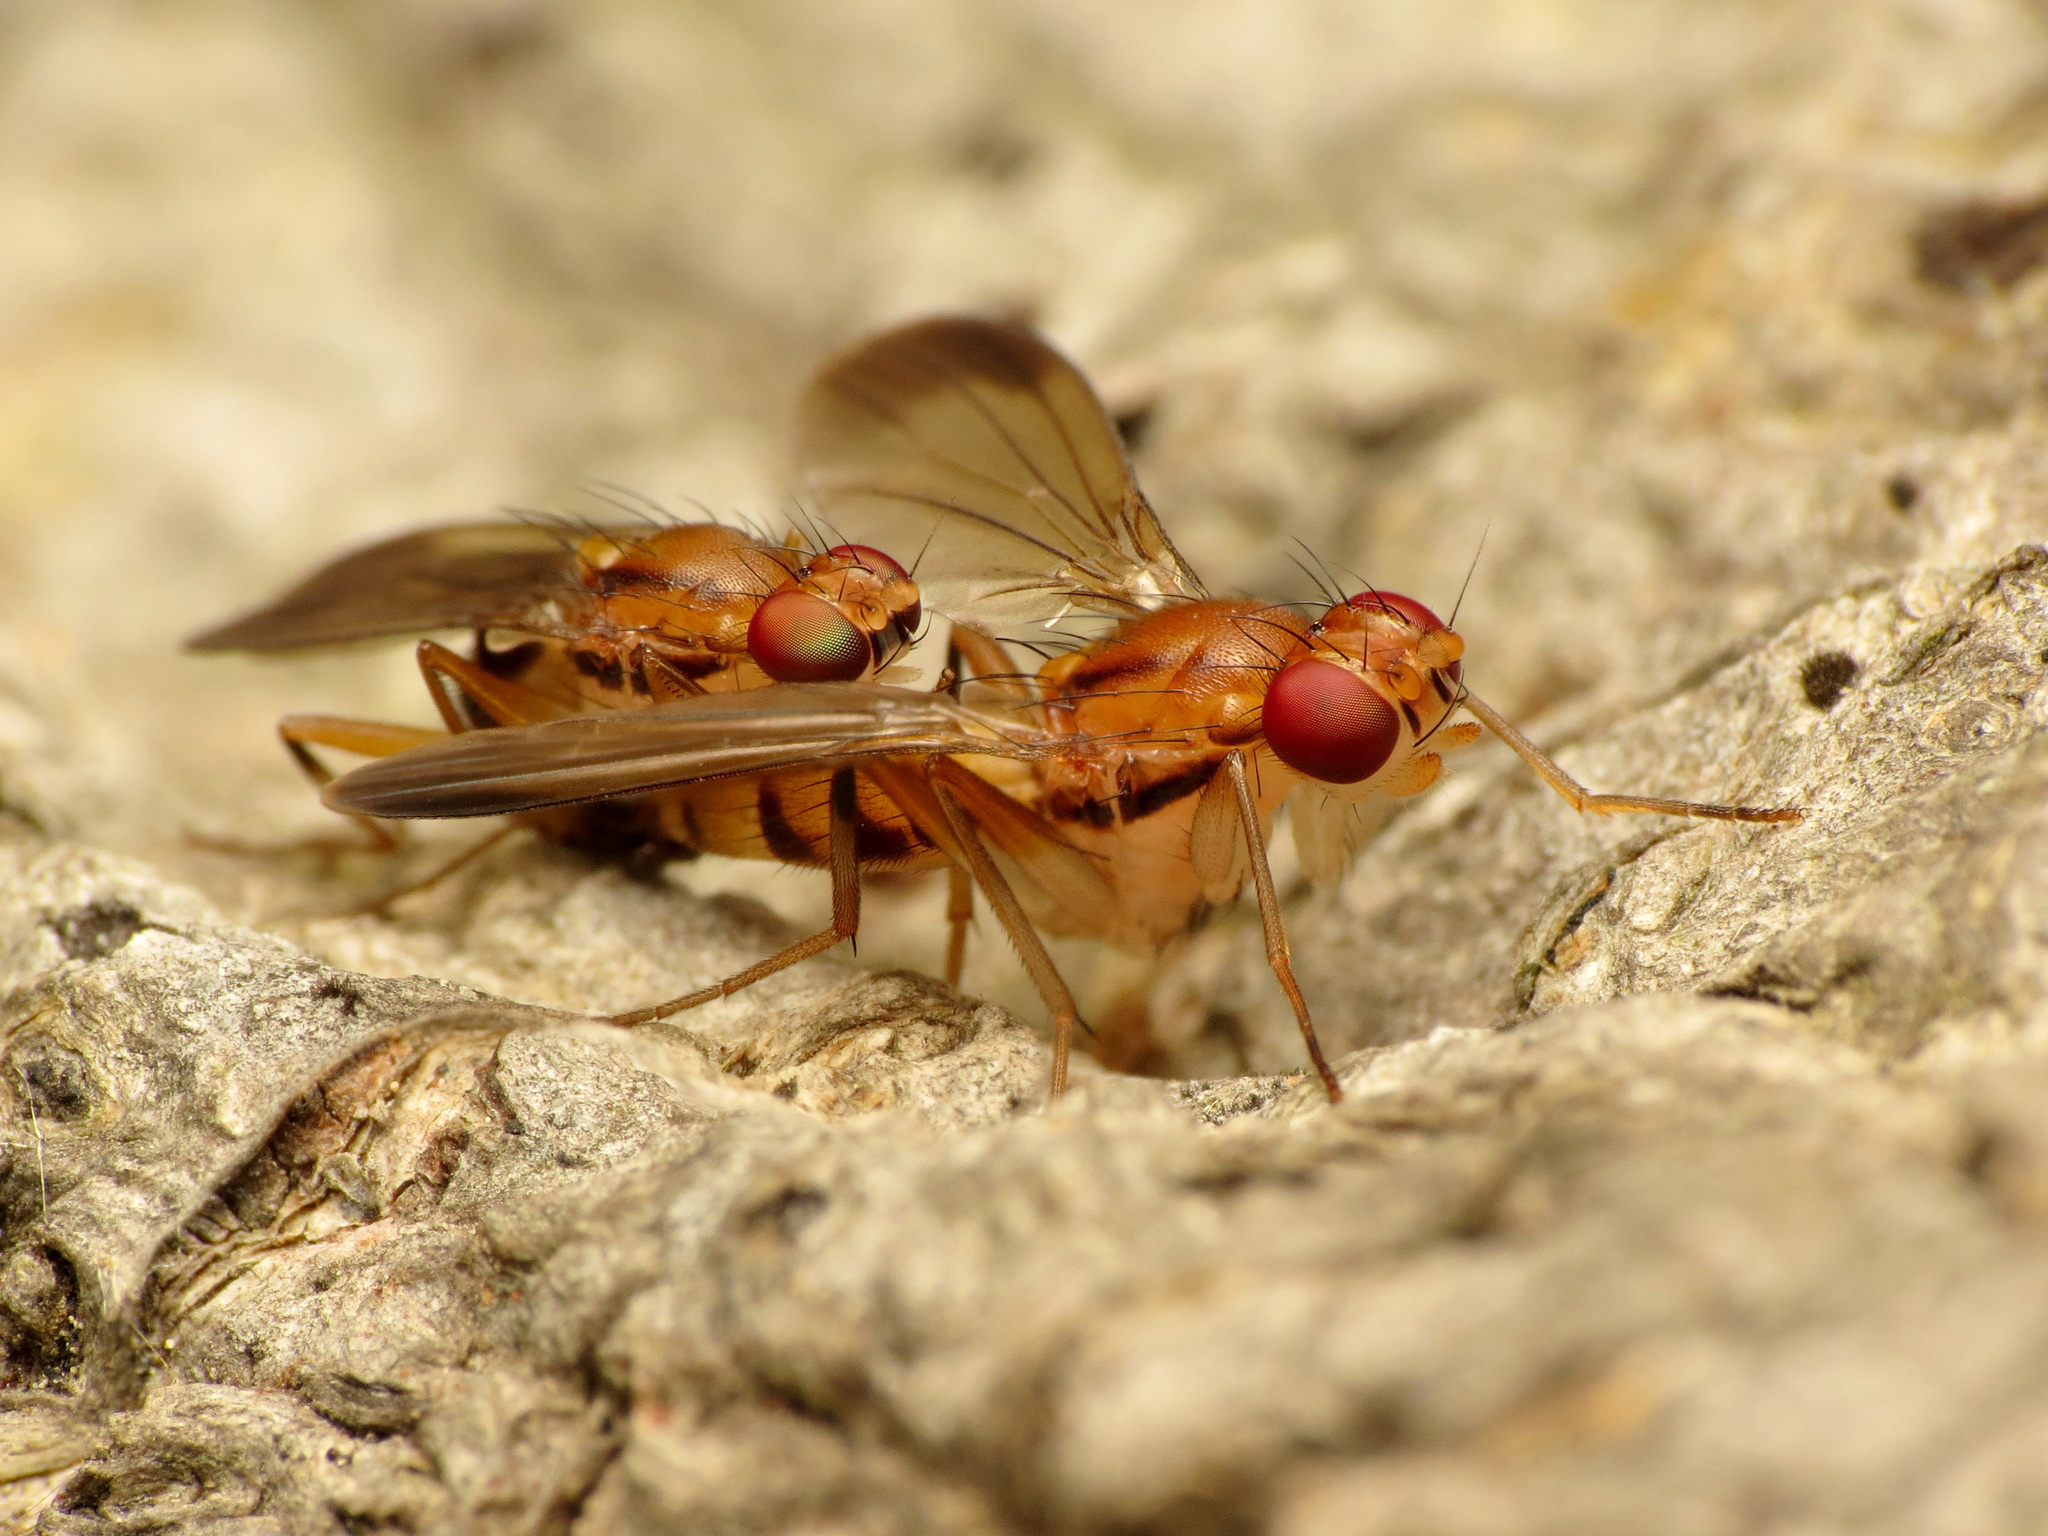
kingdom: Animalia
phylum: Arthropoda
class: Insecta
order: Diptera
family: Clusiidae
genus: Clusia
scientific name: Clusia lateralis
